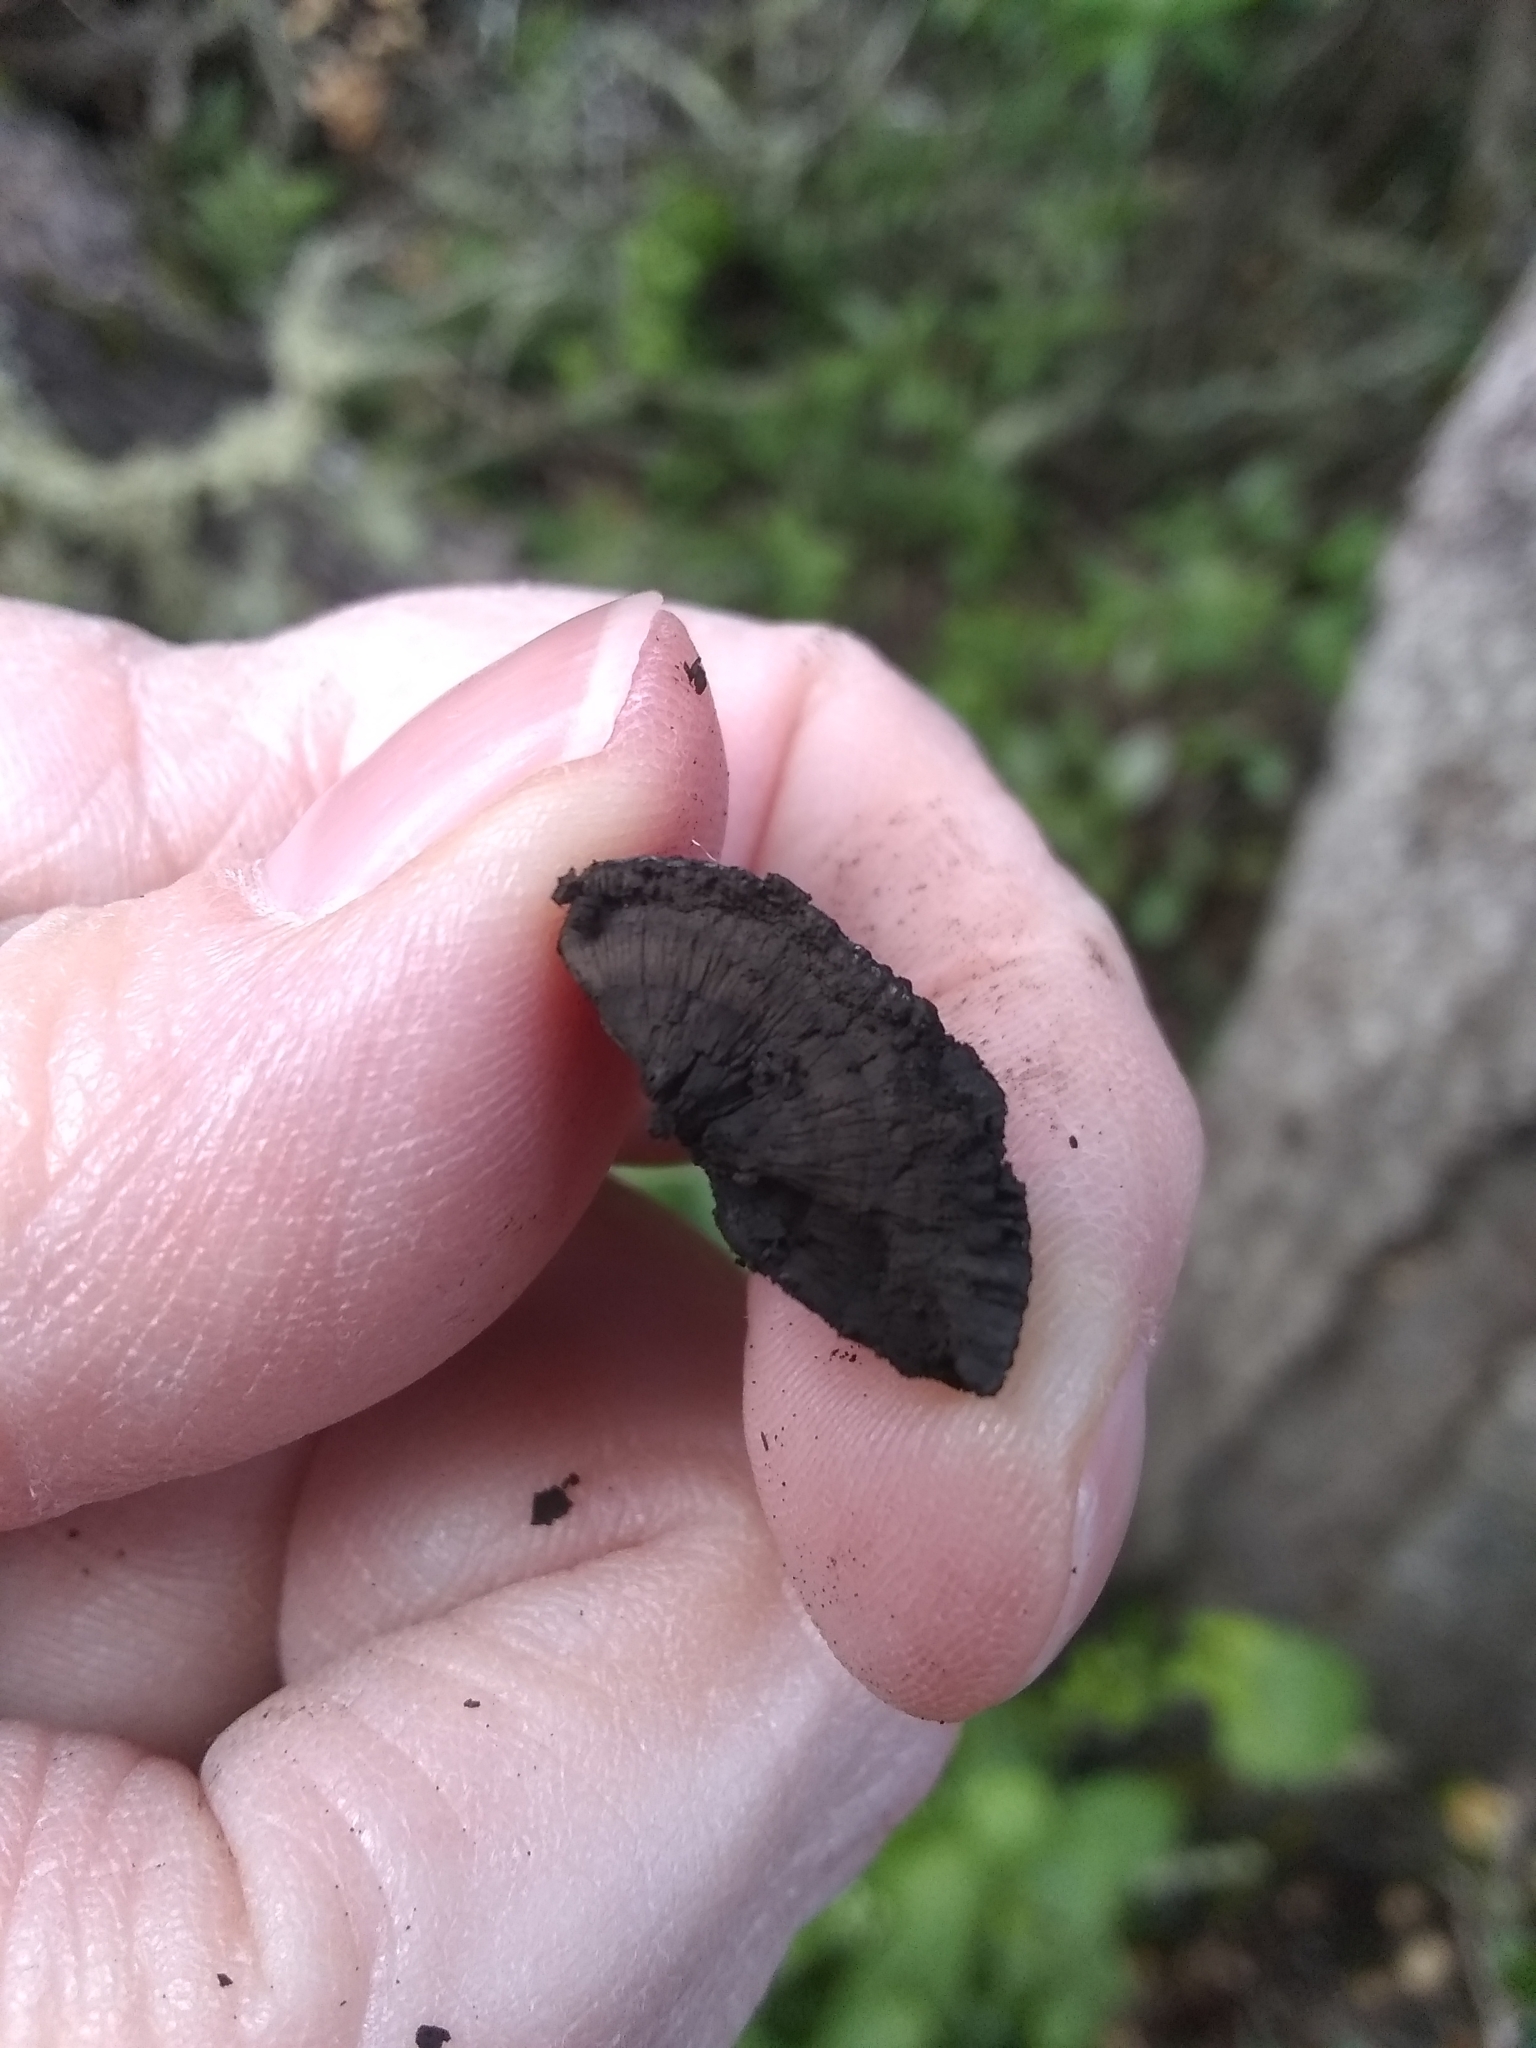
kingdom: Fungi
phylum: Ascomycota
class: Sordariomycetes
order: Xylariales
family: Hypoxylaceae
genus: Annulohypoxylon
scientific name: Annulohypoxylon thouarsianum
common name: Cramp balls
